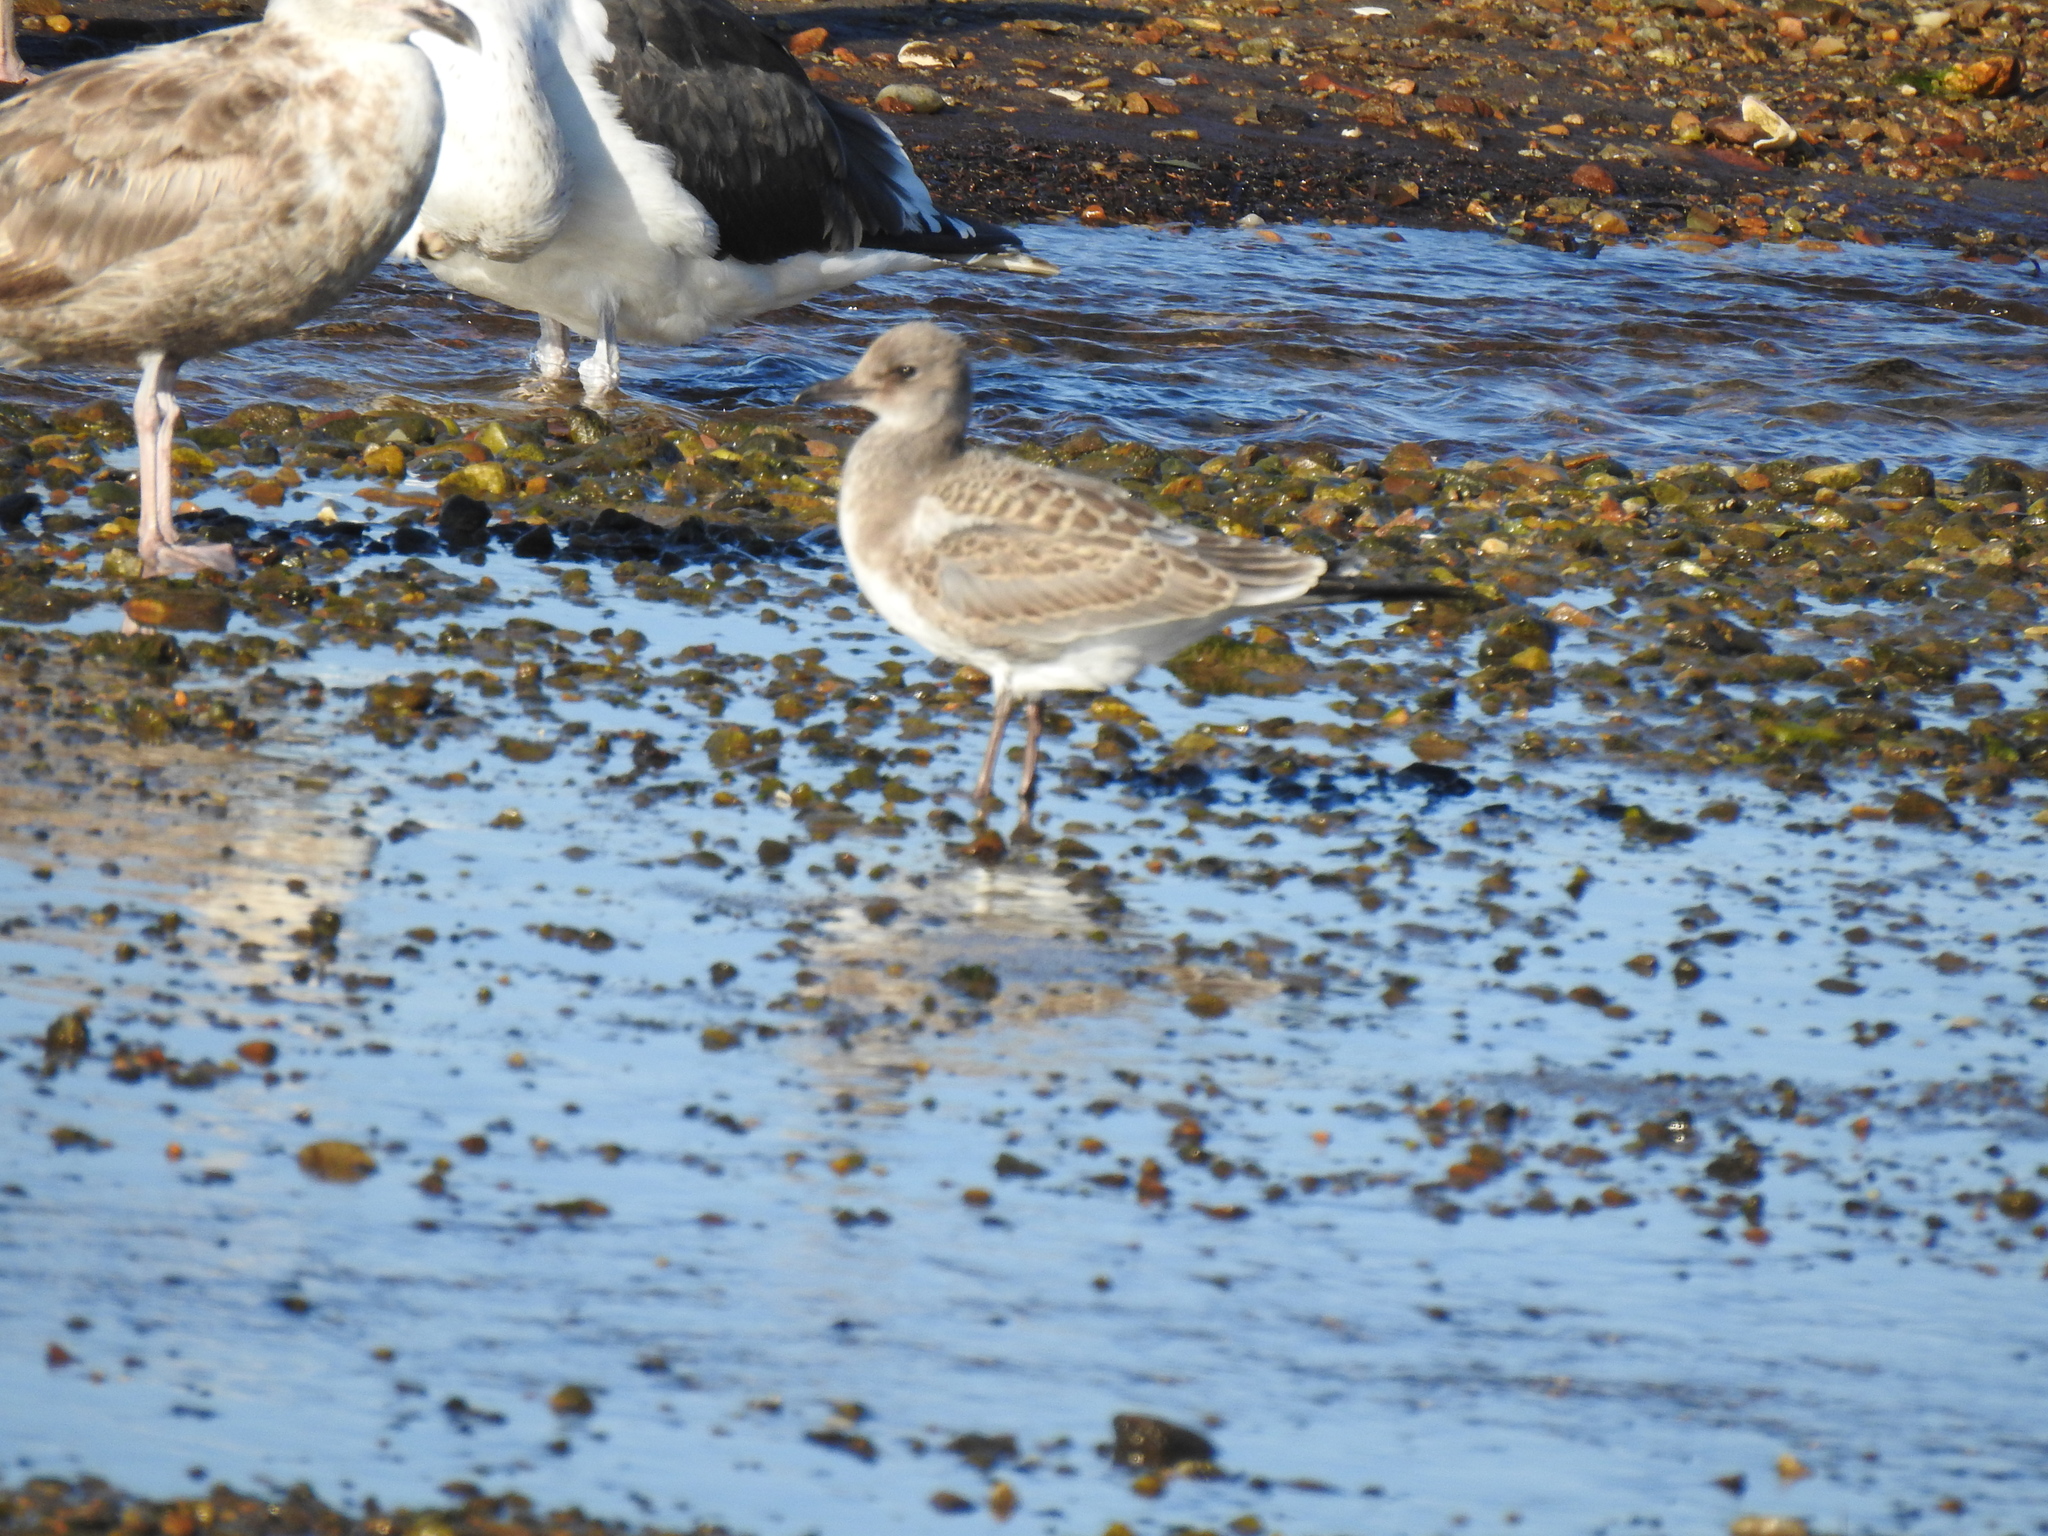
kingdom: Animalia
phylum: Chordata
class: Aves
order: Charadriiformes
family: Laridae
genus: Leucophaeus
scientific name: Leucophaeus atricilla
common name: Laughing gull
